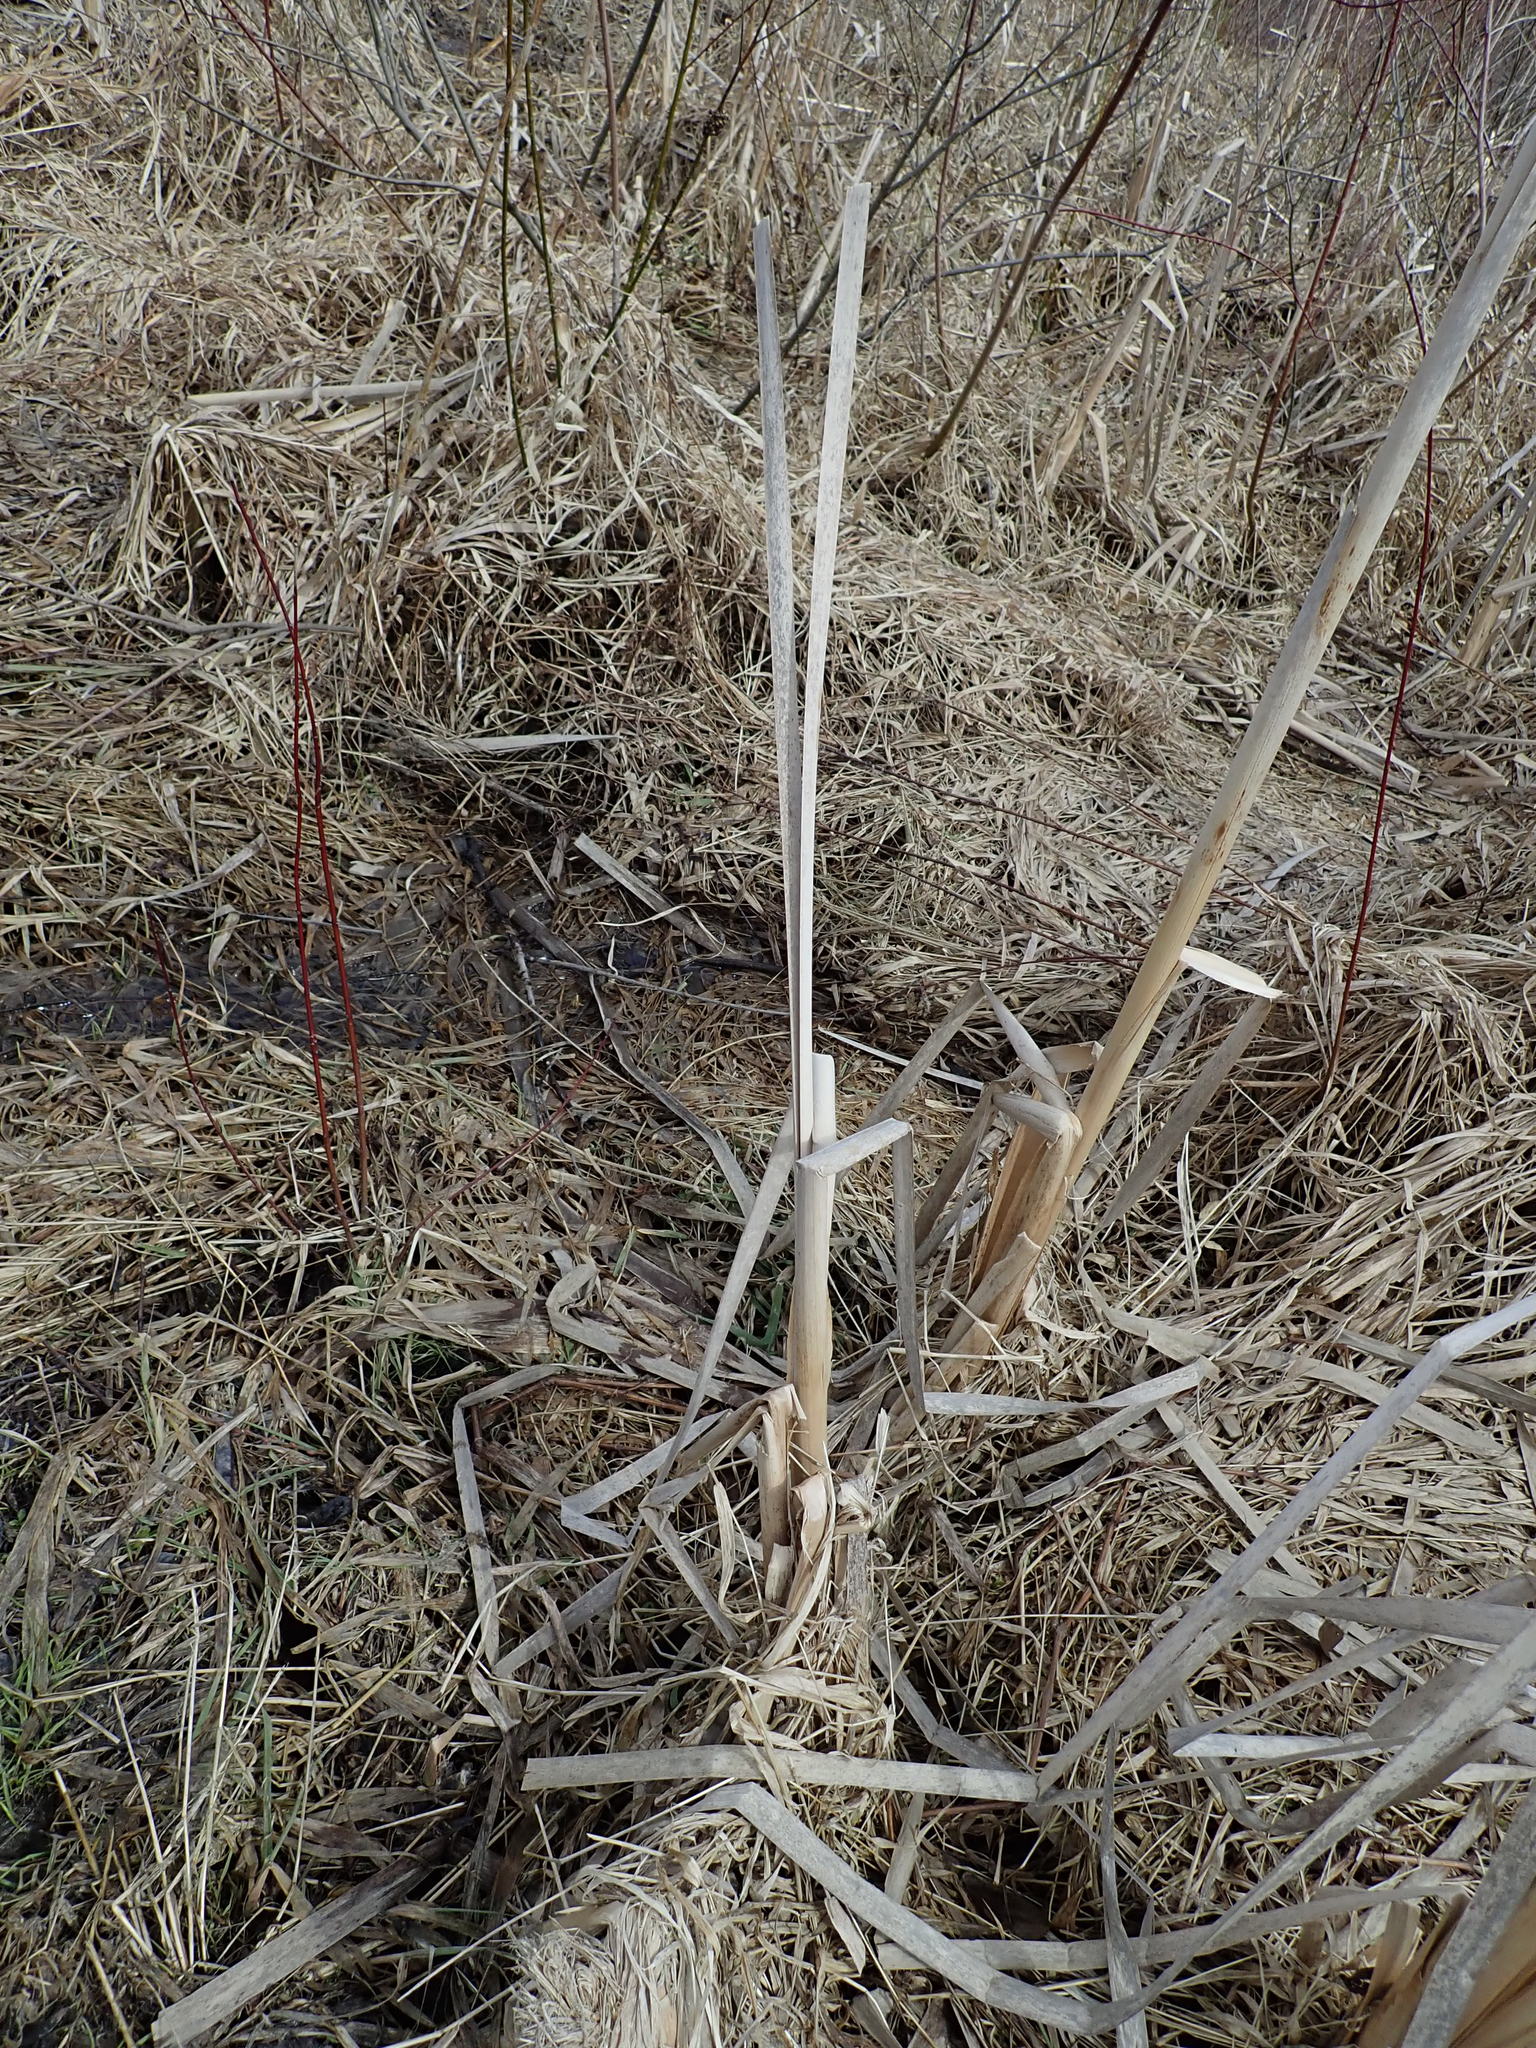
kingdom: Plantae
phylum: Tracheophyta
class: Liliopsida
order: Poales
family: Typhaceae
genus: Typha
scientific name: Typha
